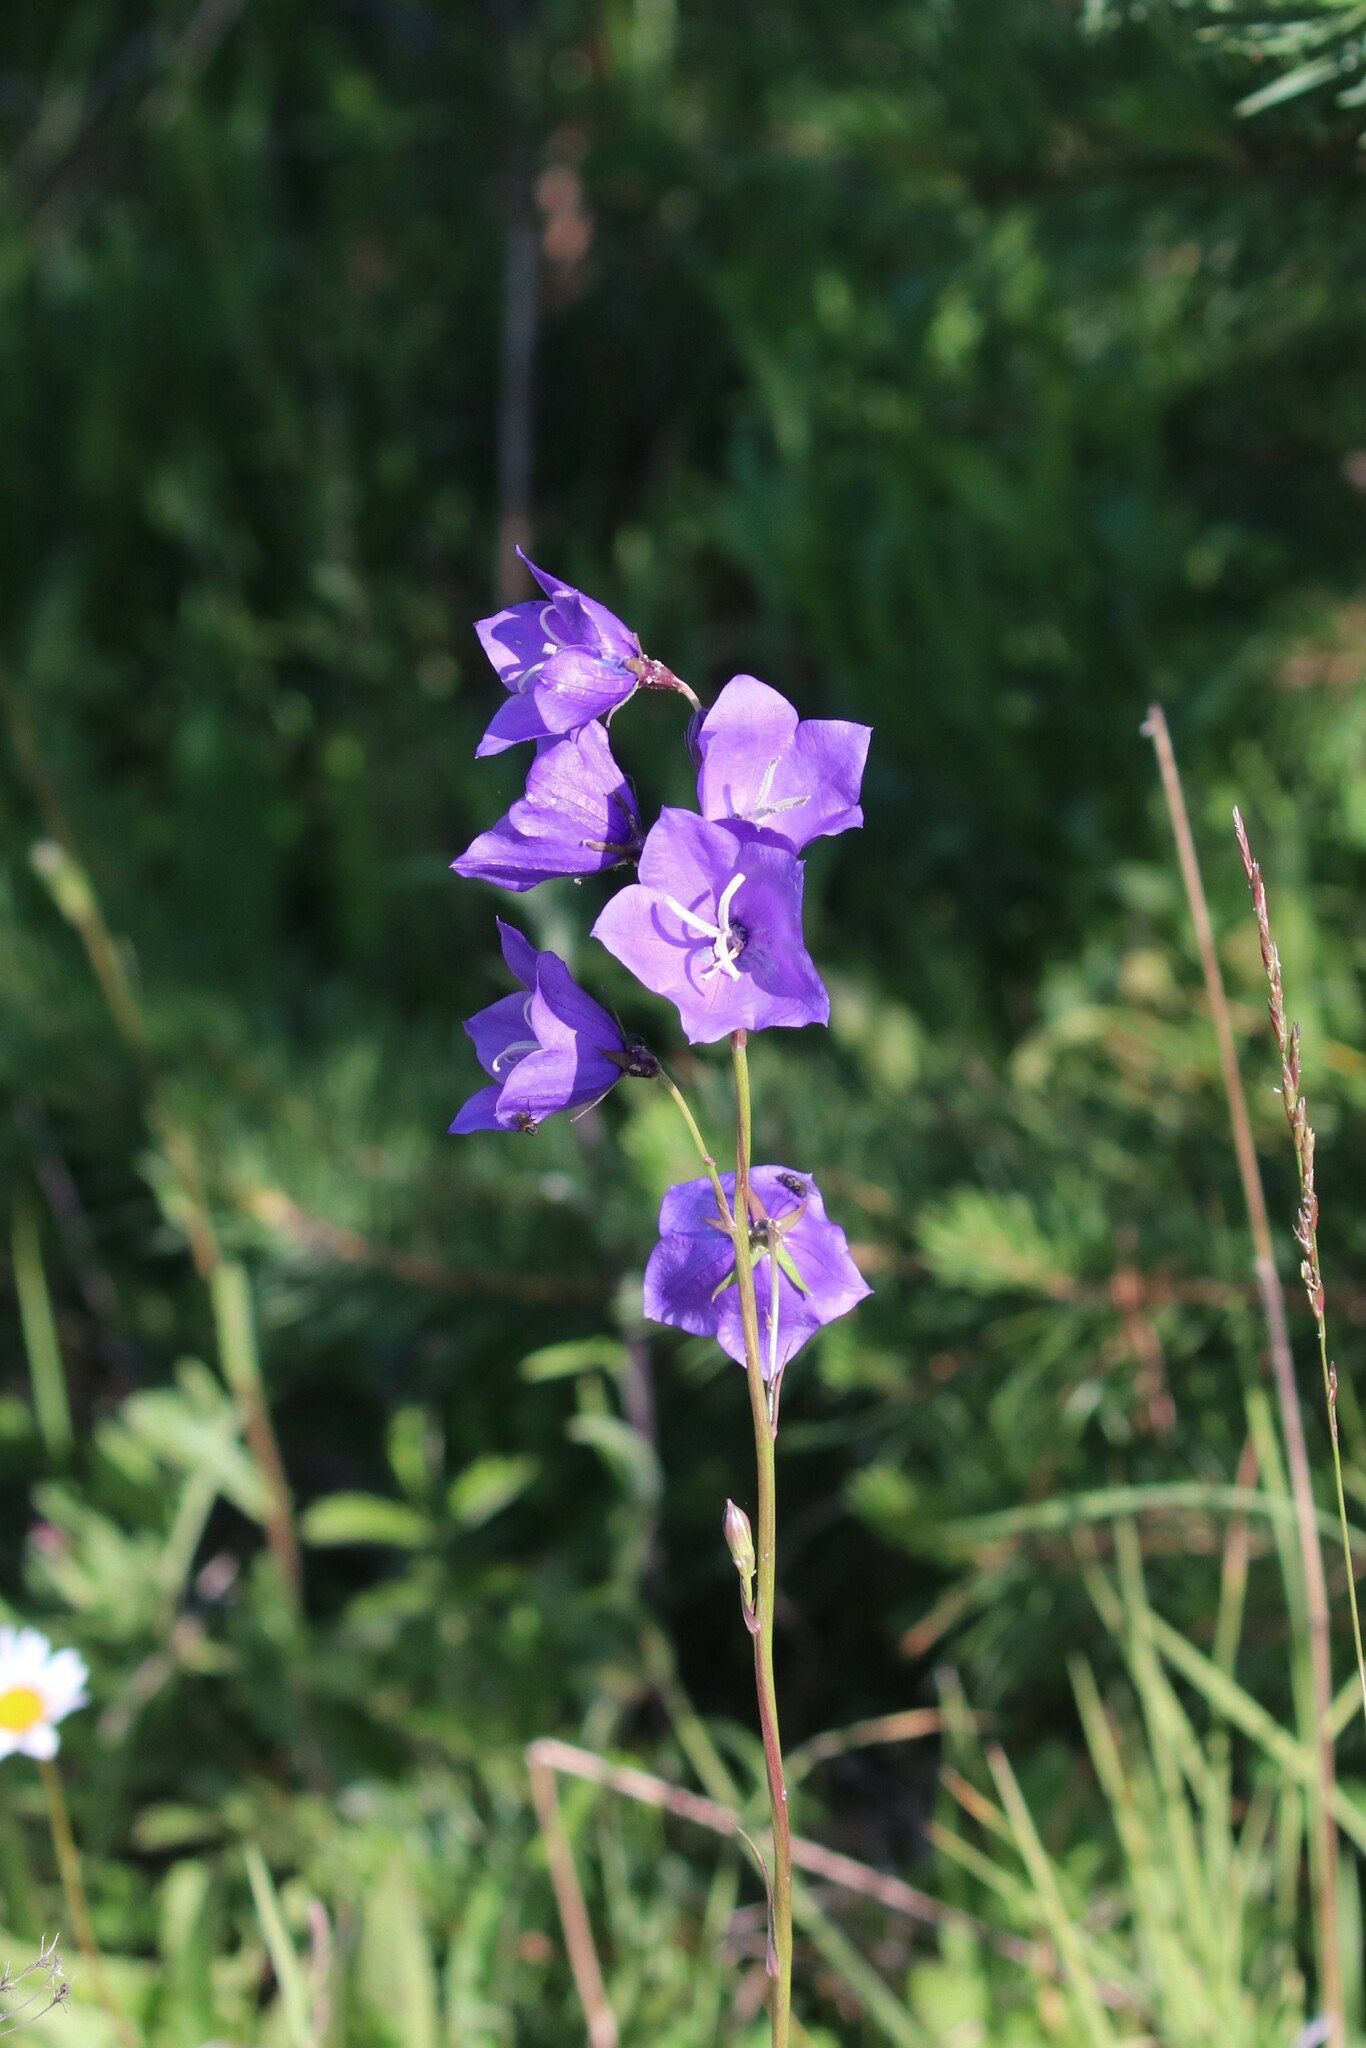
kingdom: Plantae
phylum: Tracheophyta
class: Magnoliopsida
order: Asterales
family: Campanulaceae
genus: Campanula
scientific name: Campanula persicifolia
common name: Peach-leaved bellflower
